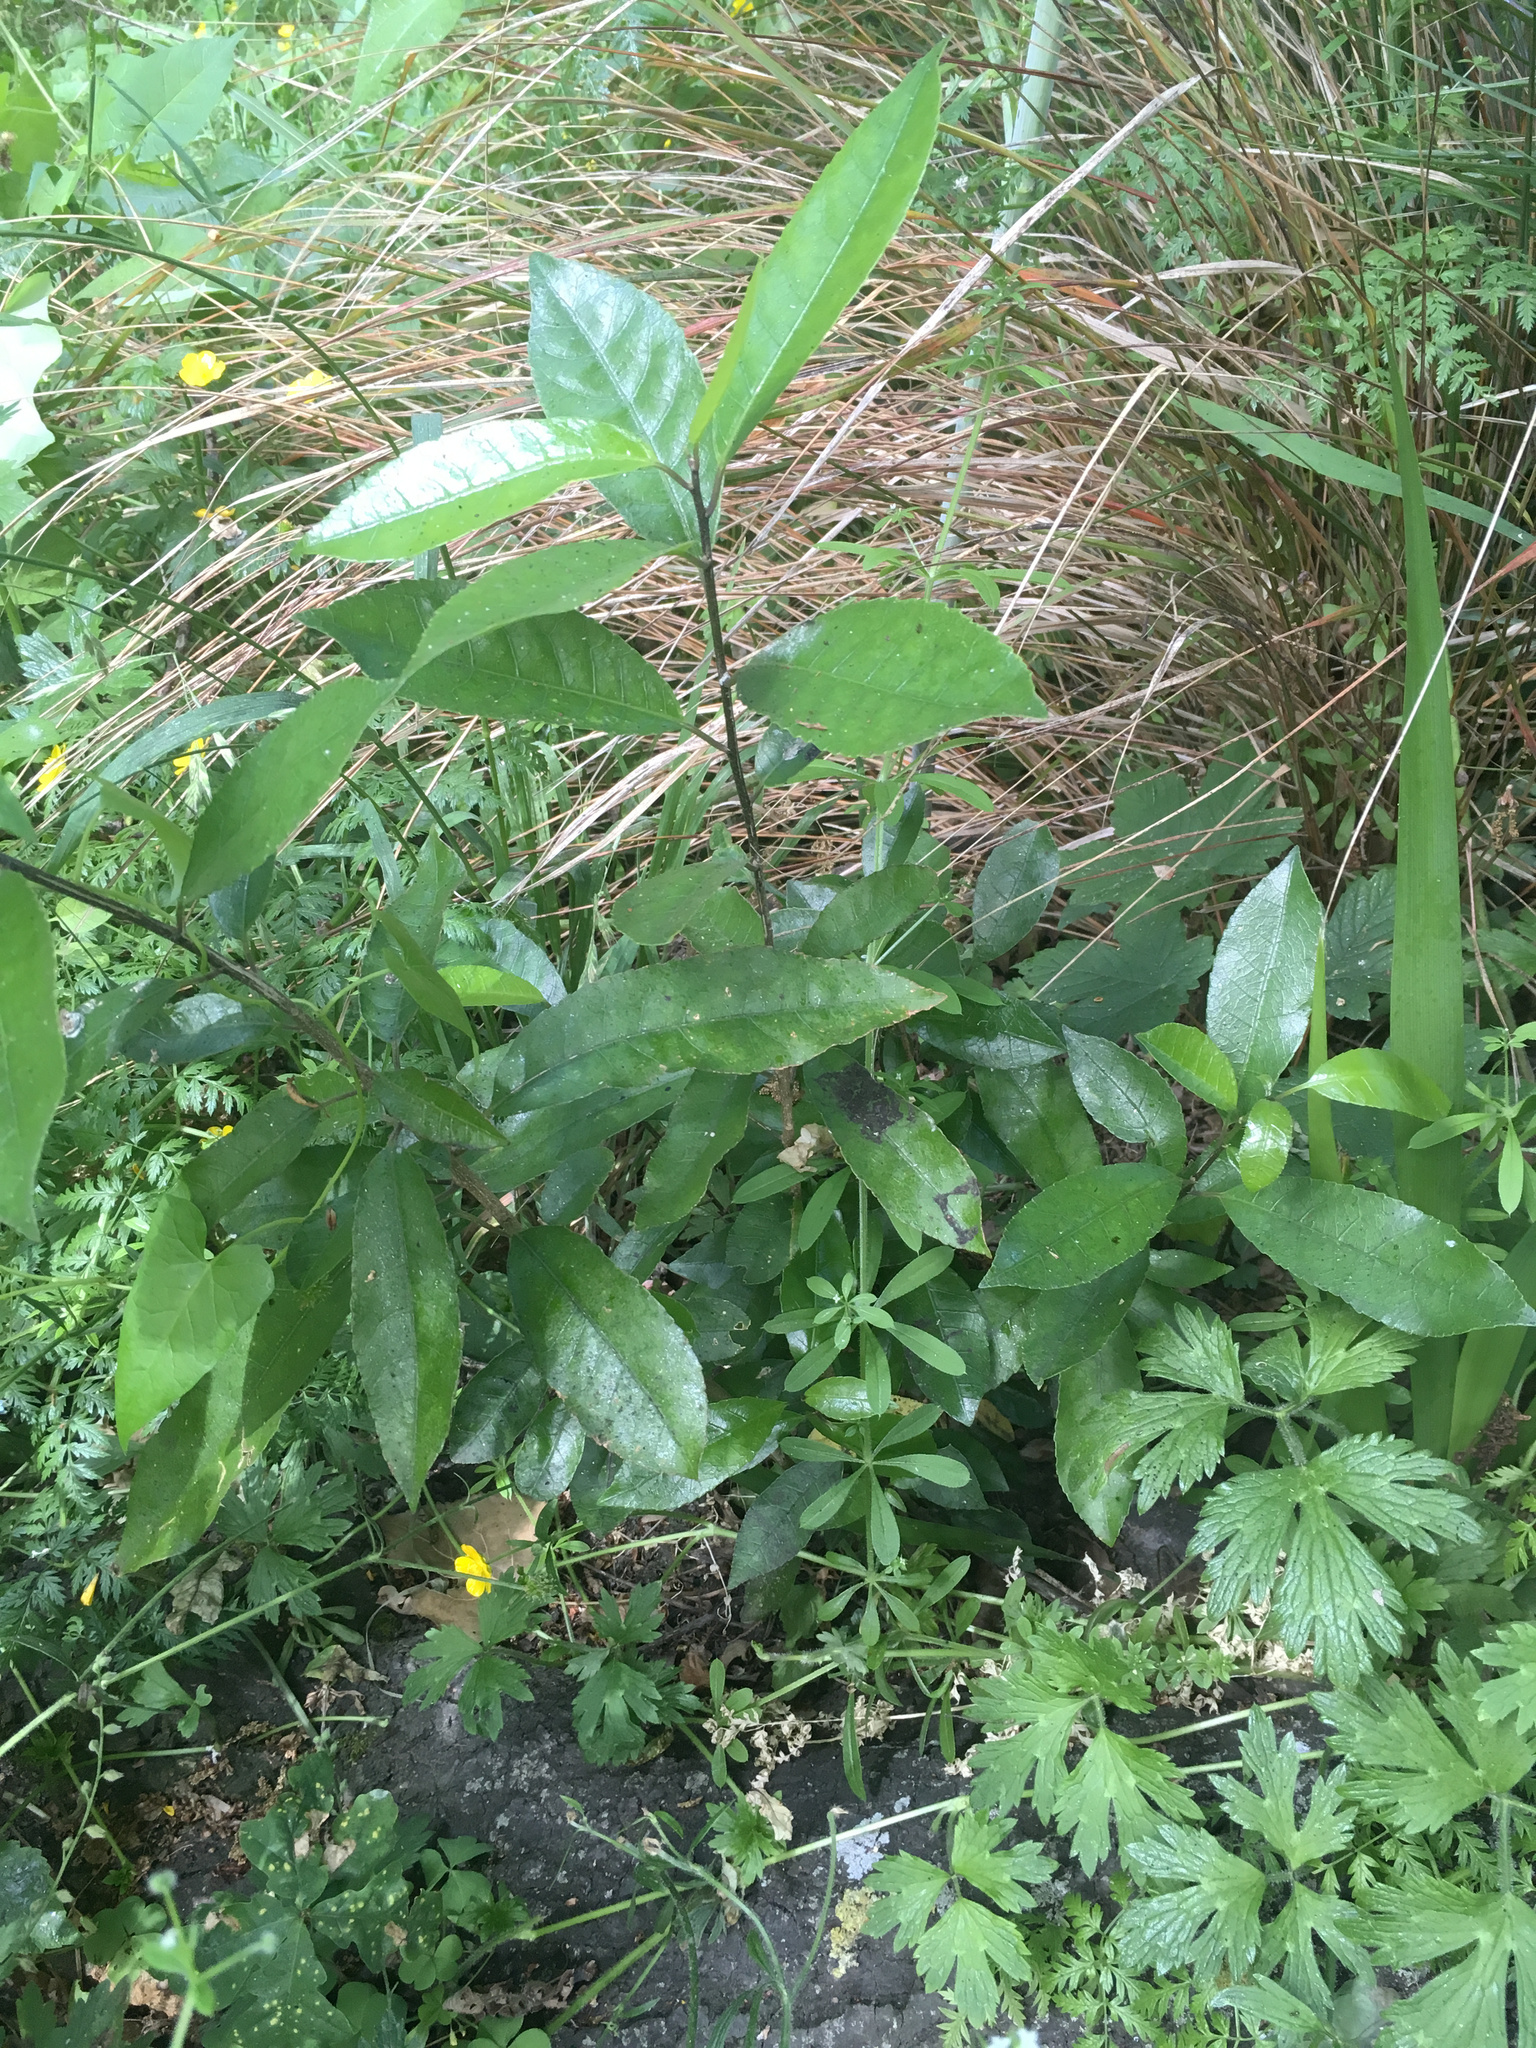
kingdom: Plantae
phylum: Tracheophyta
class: Magnoliopsida
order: Malpighiales
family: Violaceae
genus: Melicytus
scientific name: Melicytus ramiflorus
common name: Mahoe
